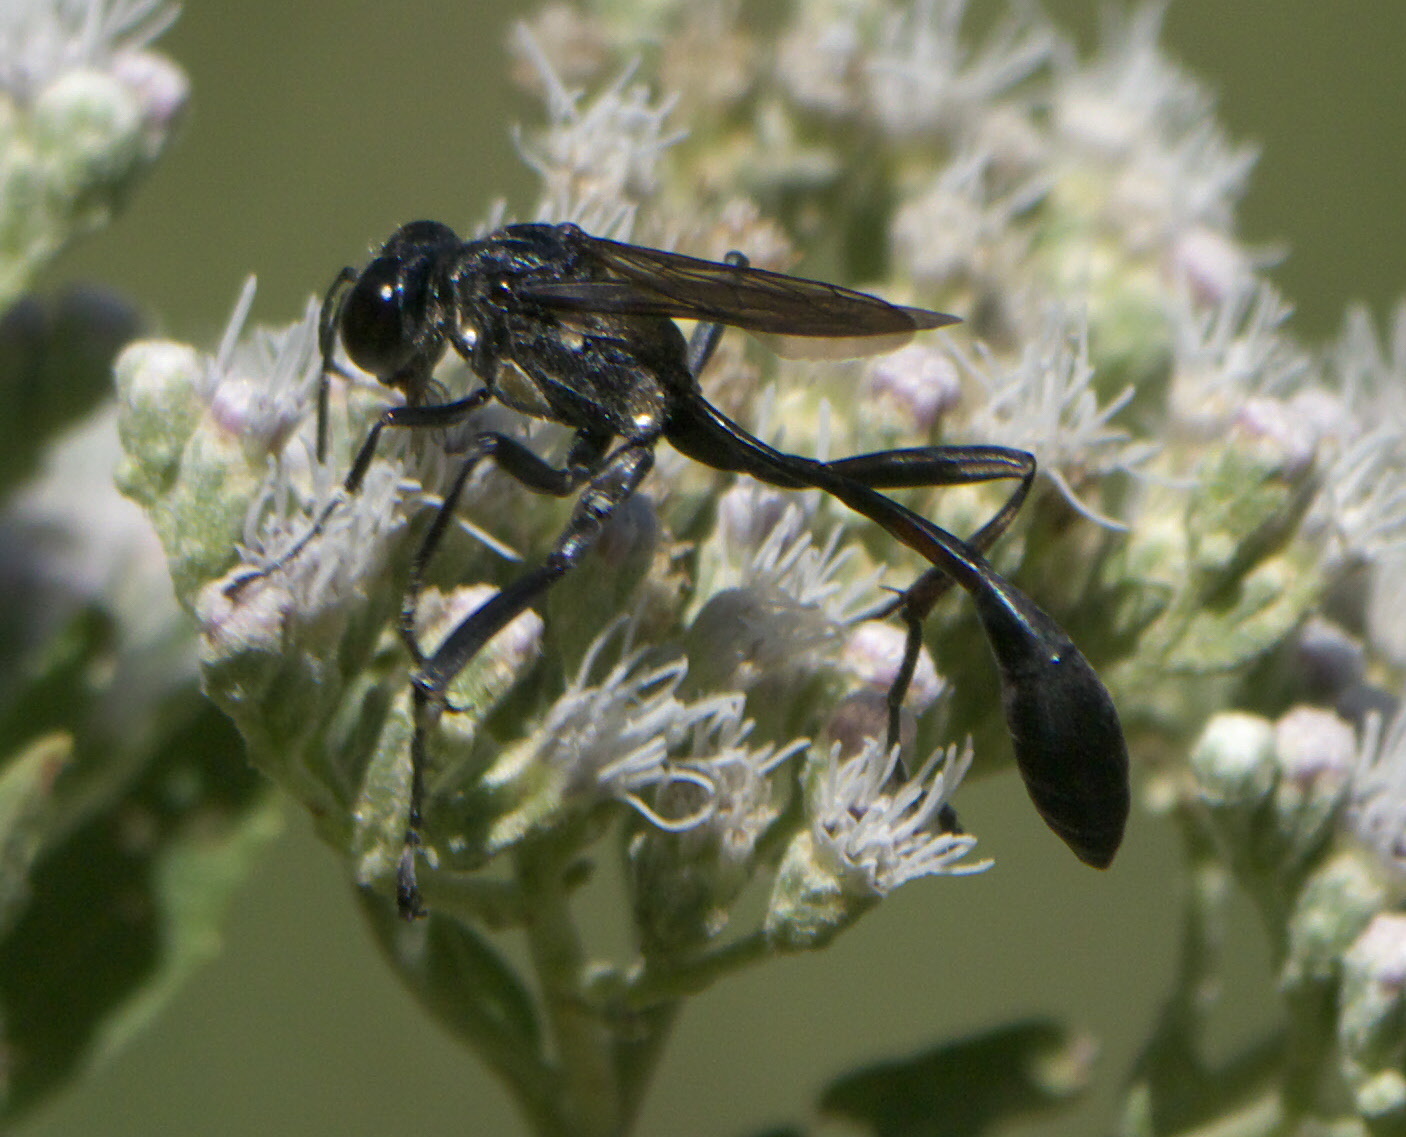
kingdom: Animalia
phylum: Arthropoda
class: Insecta
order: Hymenoptera
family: Sphecidae
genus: Eremnophila
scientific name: Eremnophila aureonotata
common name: Gold-marked thread-waisted wasp
